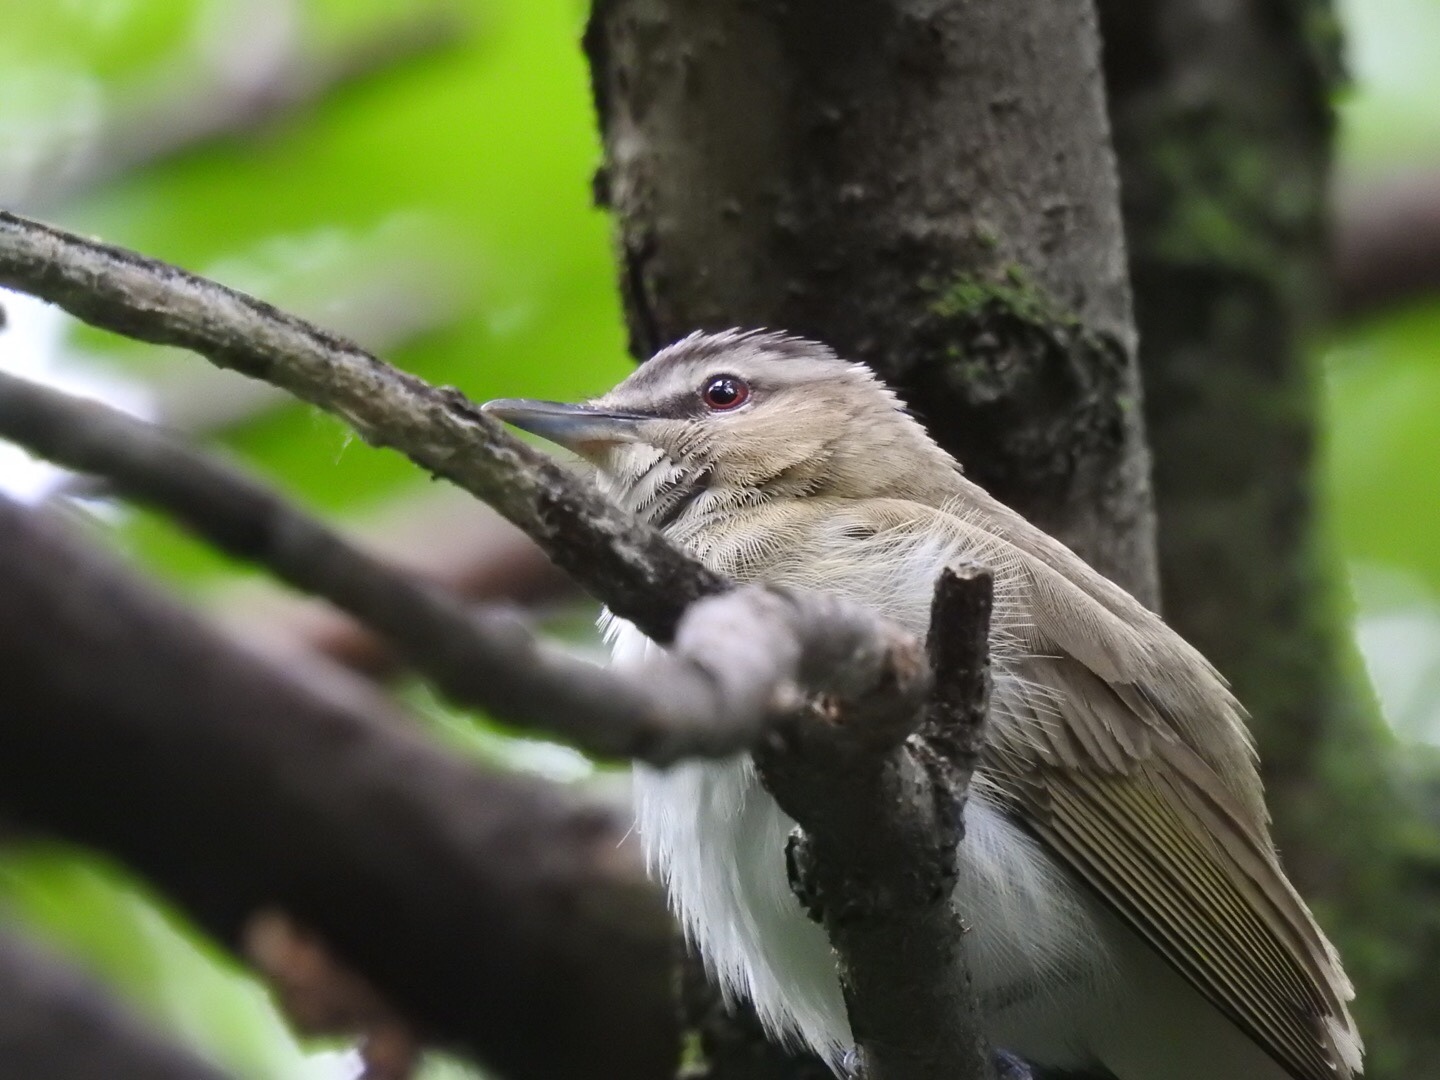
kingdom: Animalia
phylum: Chordata
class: Aves
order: Passeriformes
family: Vireonidae
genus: Vireo
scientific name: Vireo olivaceus
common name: Red-eyed vireo
